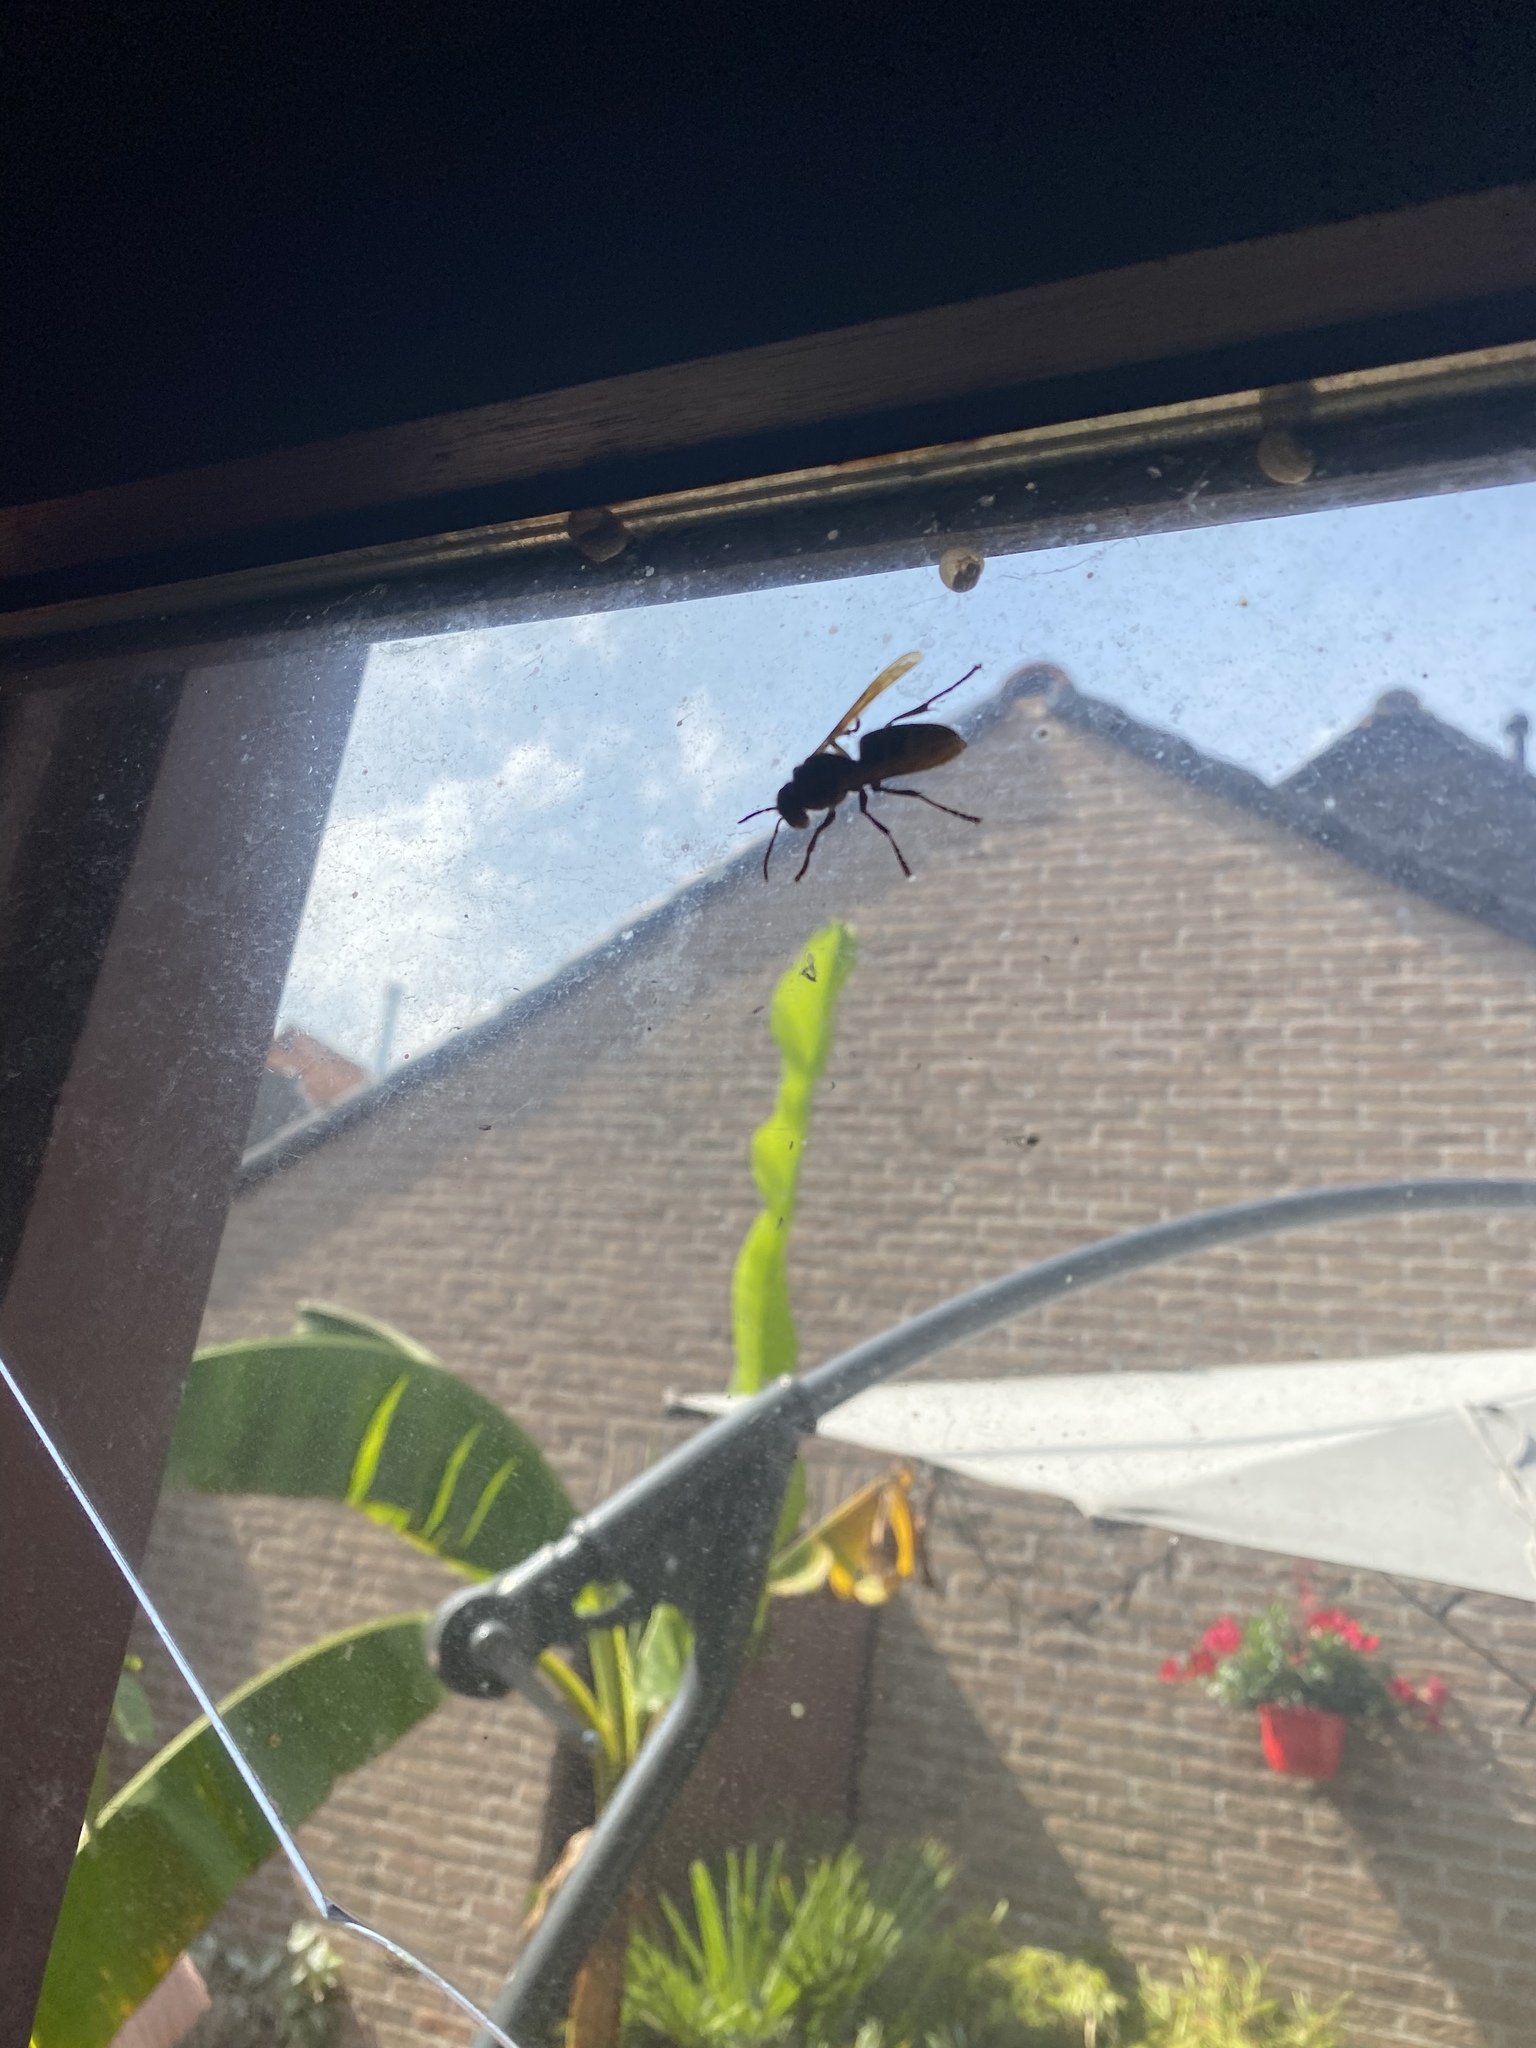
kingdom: Animalia
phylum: Arthropoda
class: Insecta
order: Hymenoptera
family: Vespidae
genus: Vespa
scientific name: Vespa crabro
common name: Hornet
